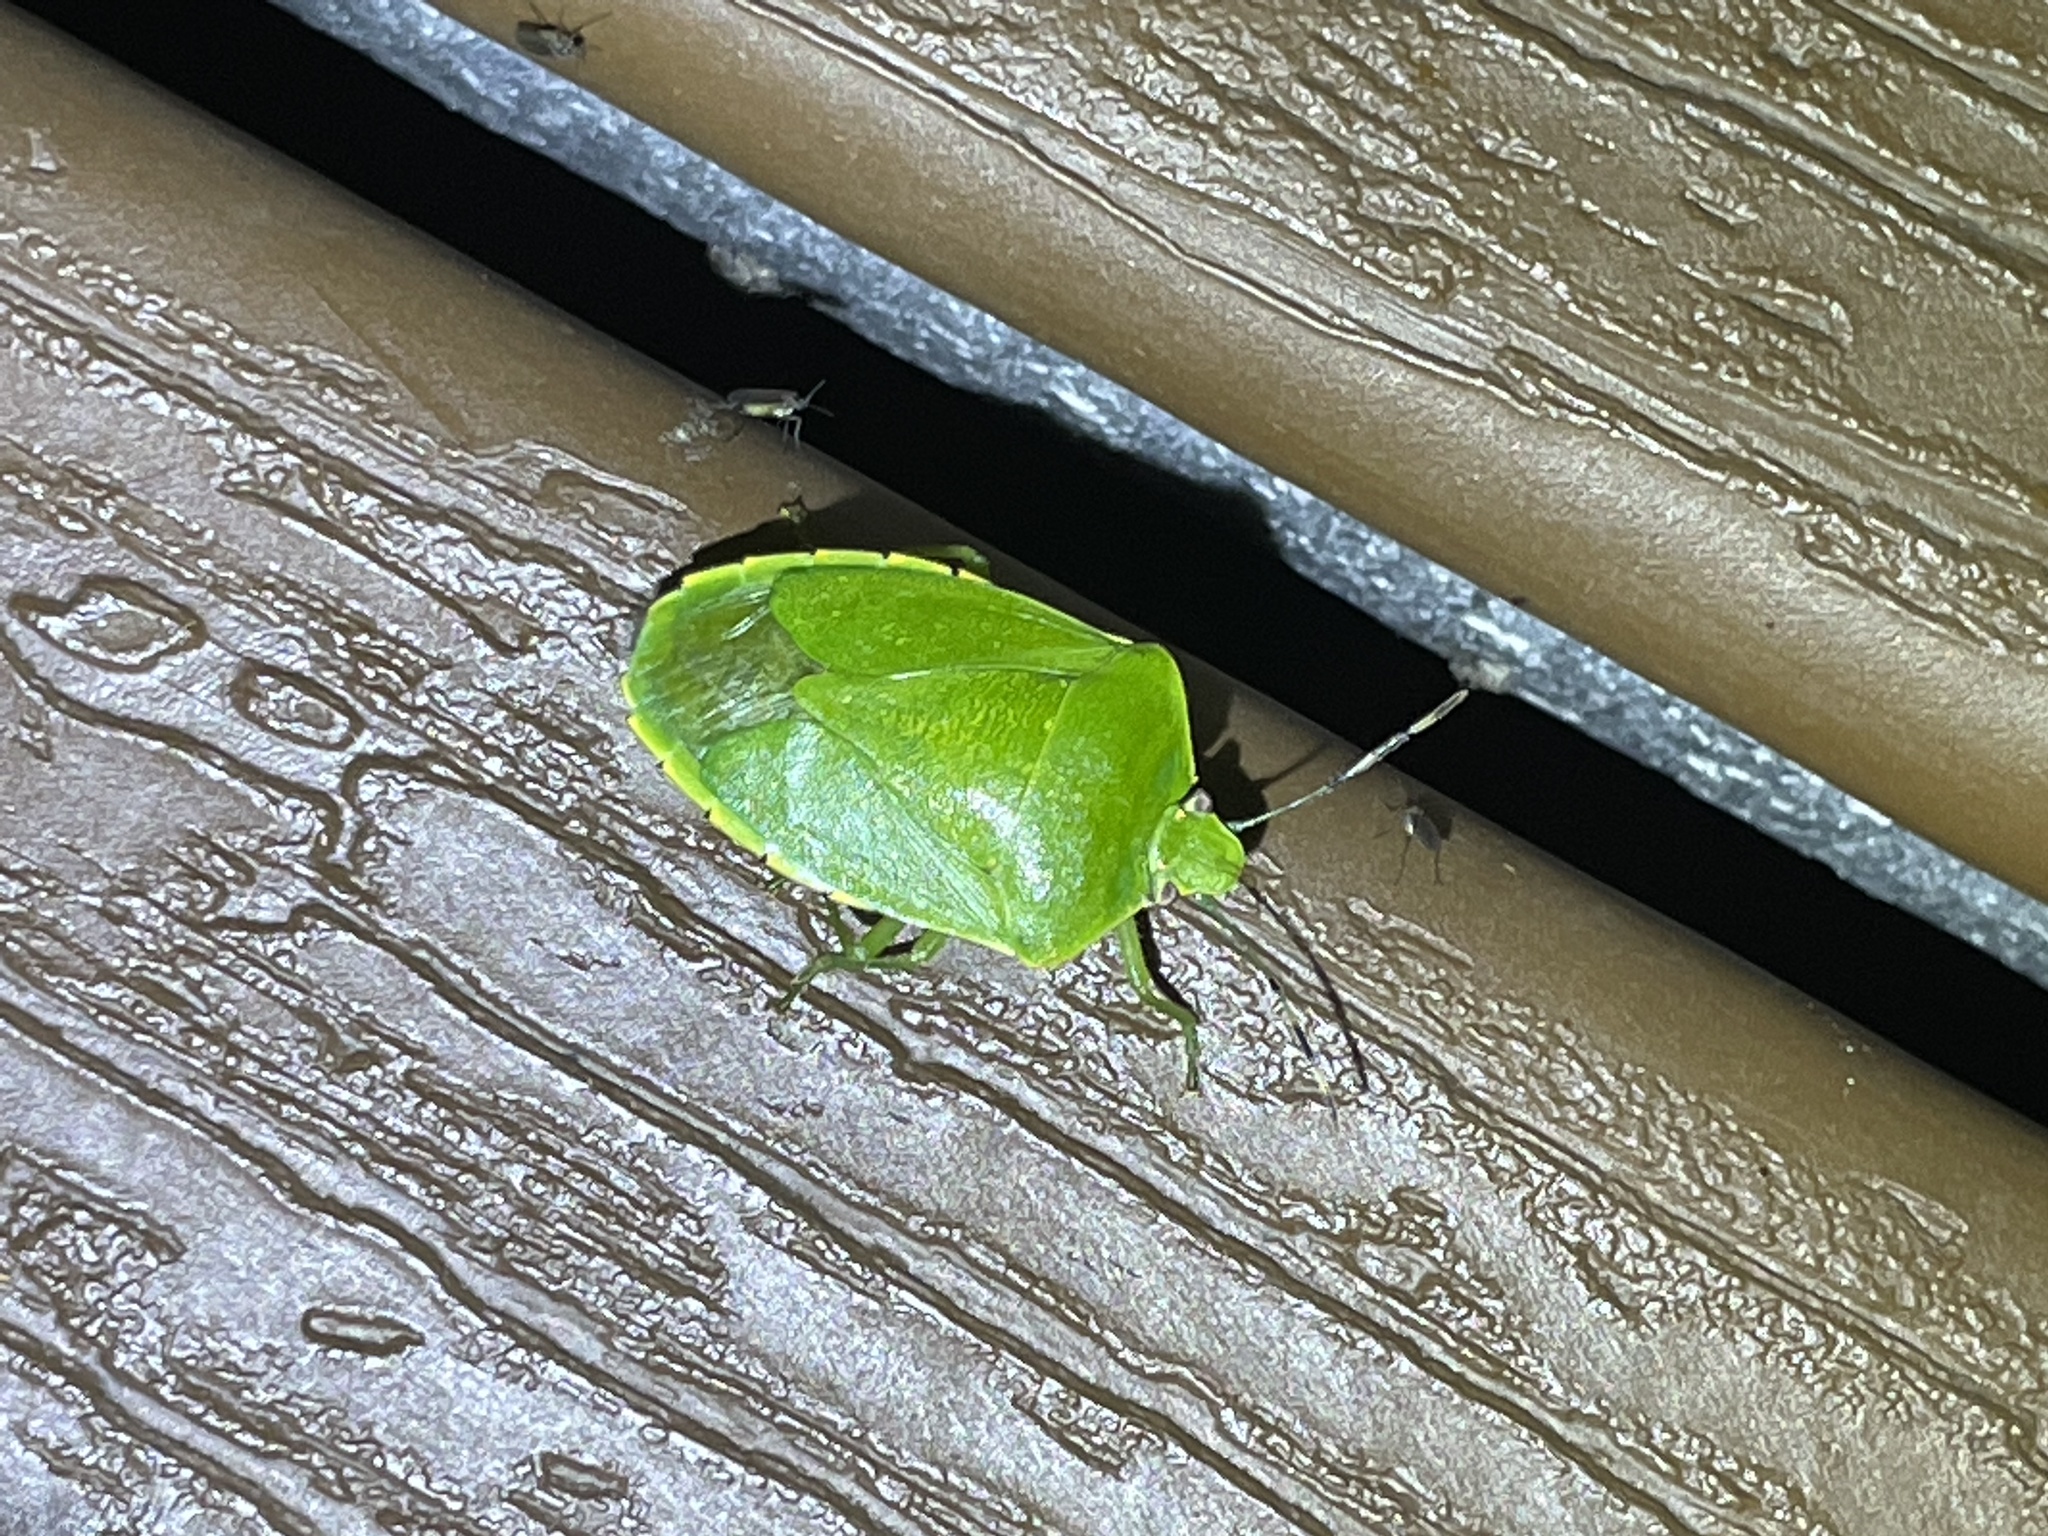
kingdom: Animalia
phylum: Arthropoda
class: Insecta
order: Hemiptera
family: Pentatomidae
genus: Chinavia
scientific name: Chinavia hilaris
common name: Green stink bug
